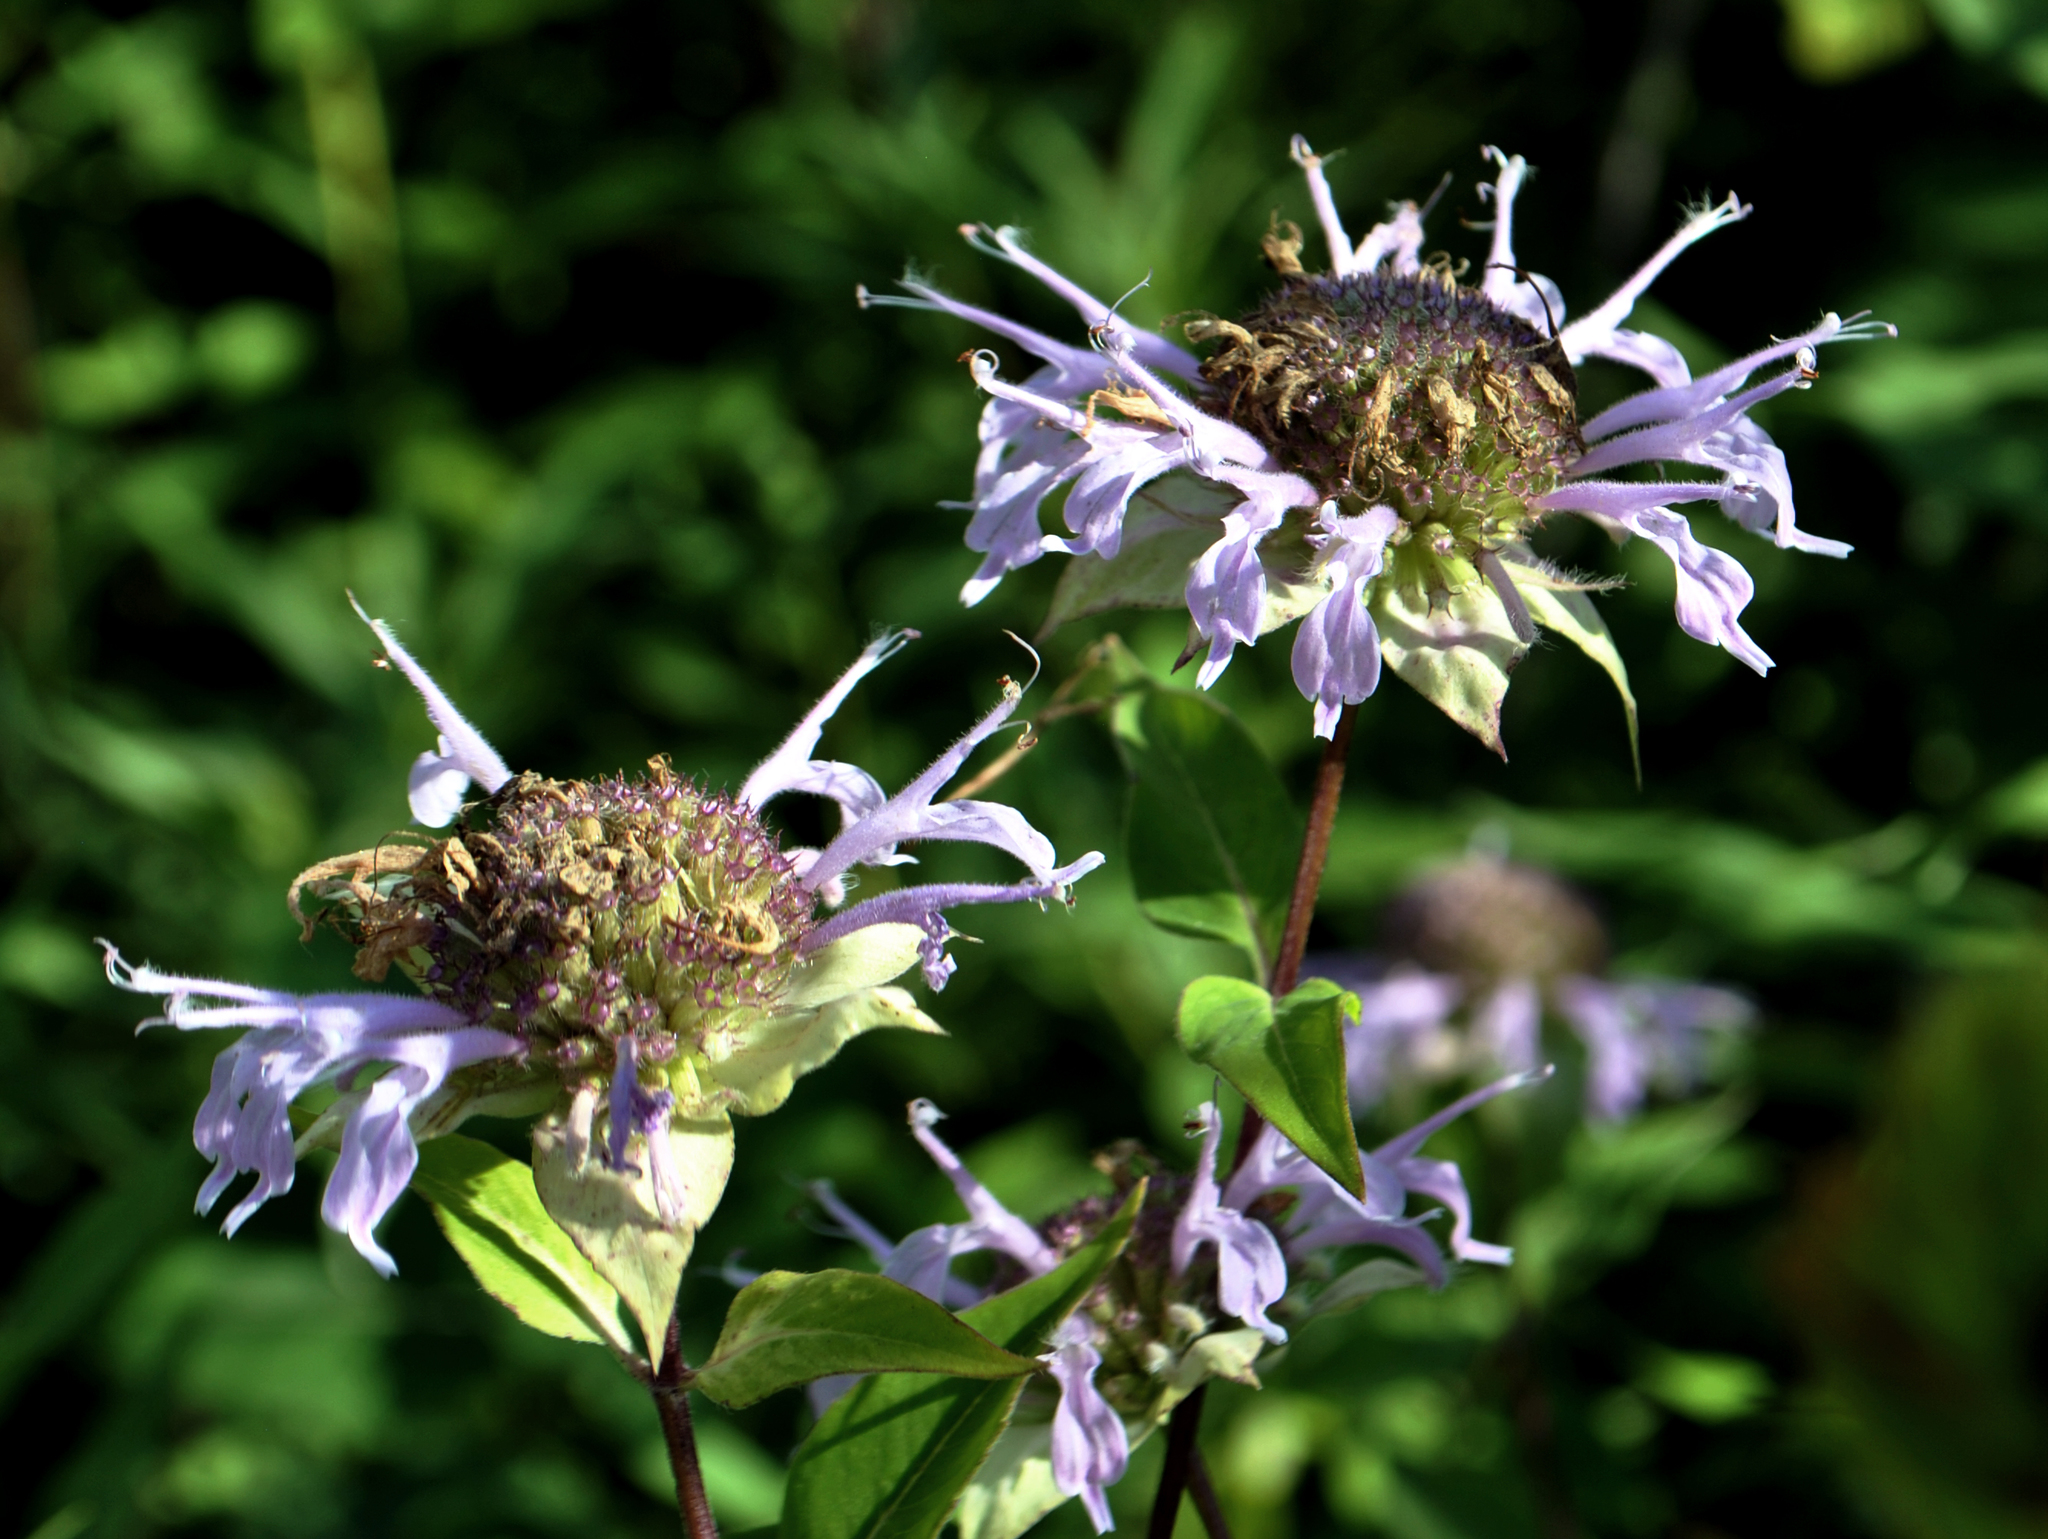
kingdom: Plantae
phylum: Tracheophyta
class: Magnoliopsida
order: Lamiales
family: Lamiaceae
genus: Monarda
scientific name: Monarda fistulosa
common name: Purple beebalm
